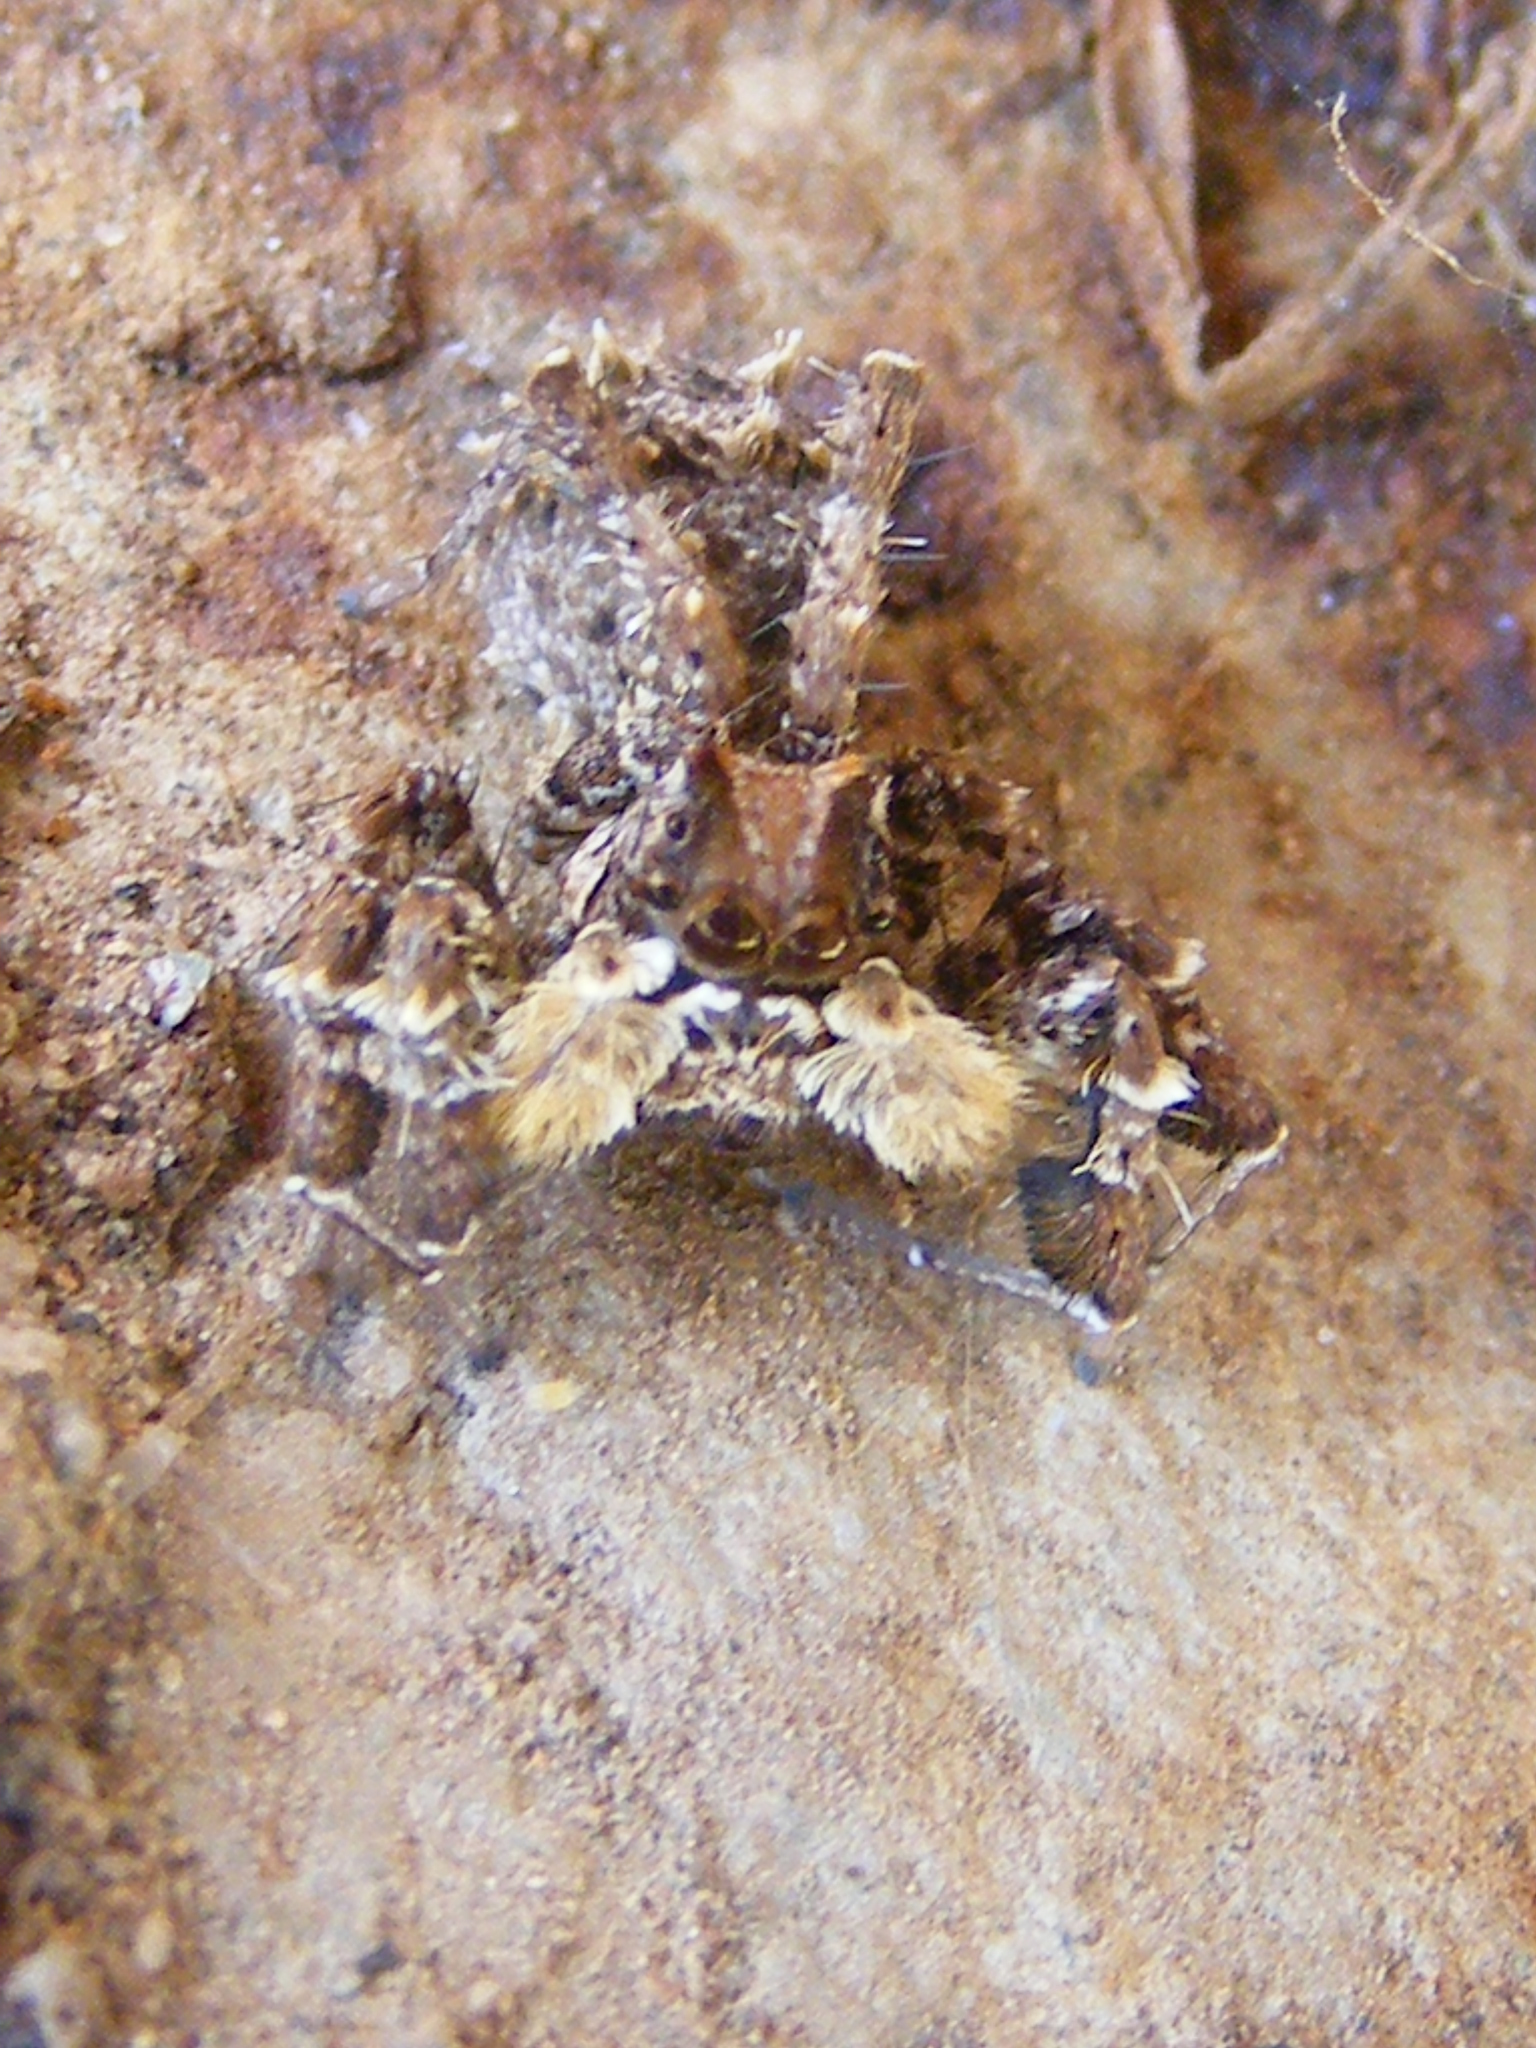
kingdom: Animalia
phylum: Arthropoda
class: Arachnida
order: Araneae
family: Salticidae
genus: Portia
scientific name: Portia schultzi
